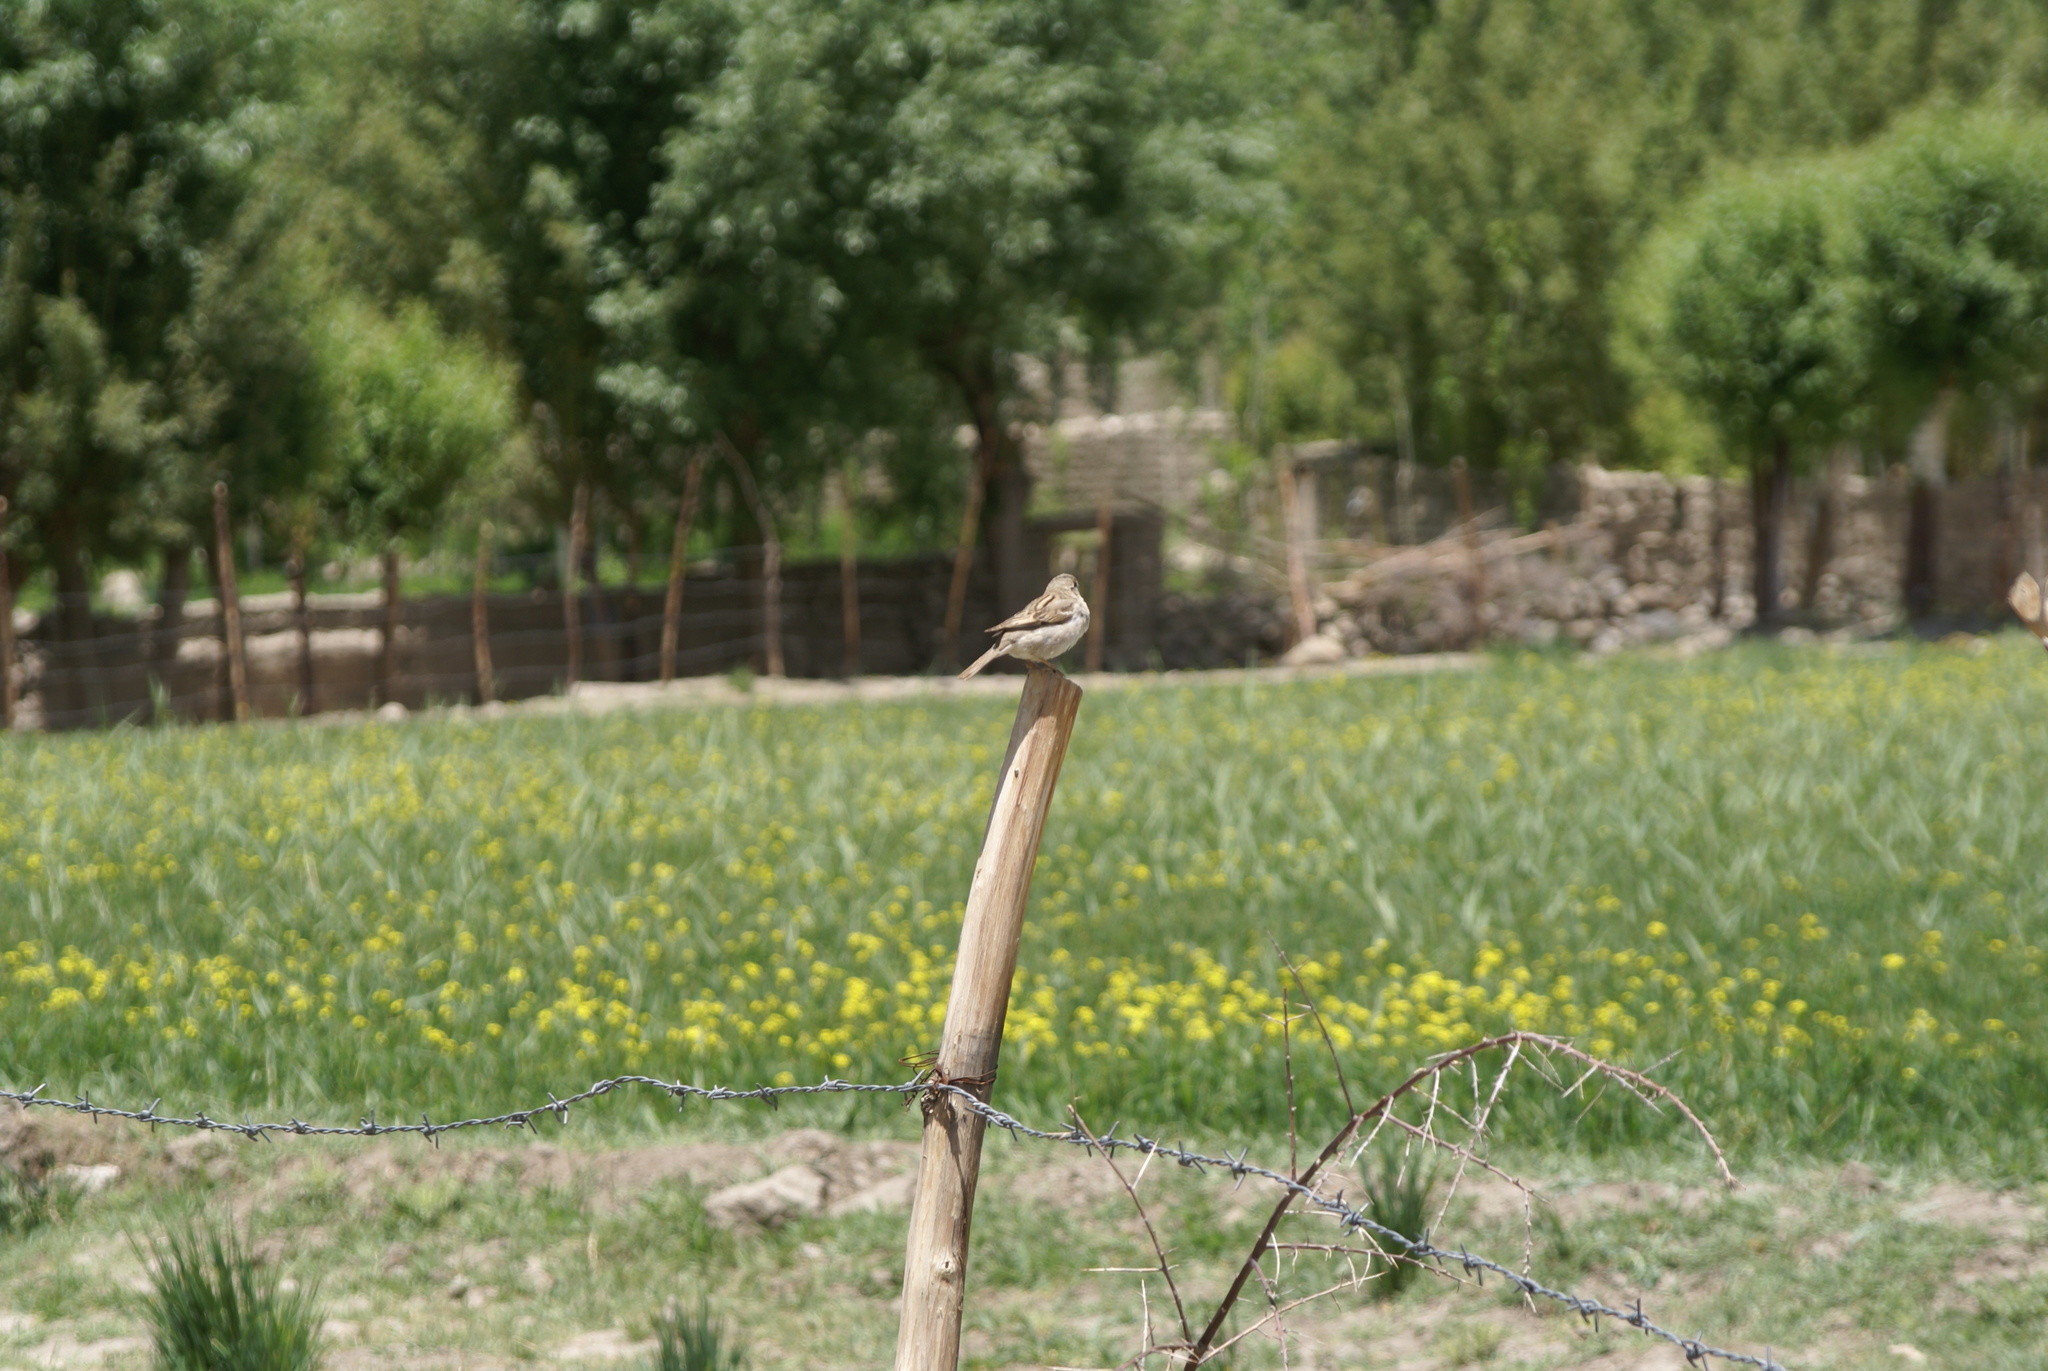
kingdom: Animalia
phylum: Chordata
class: Aves
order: Passeriformes
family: Passeridae
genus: Passer
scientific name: Passer domesticus
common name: House sparrow
